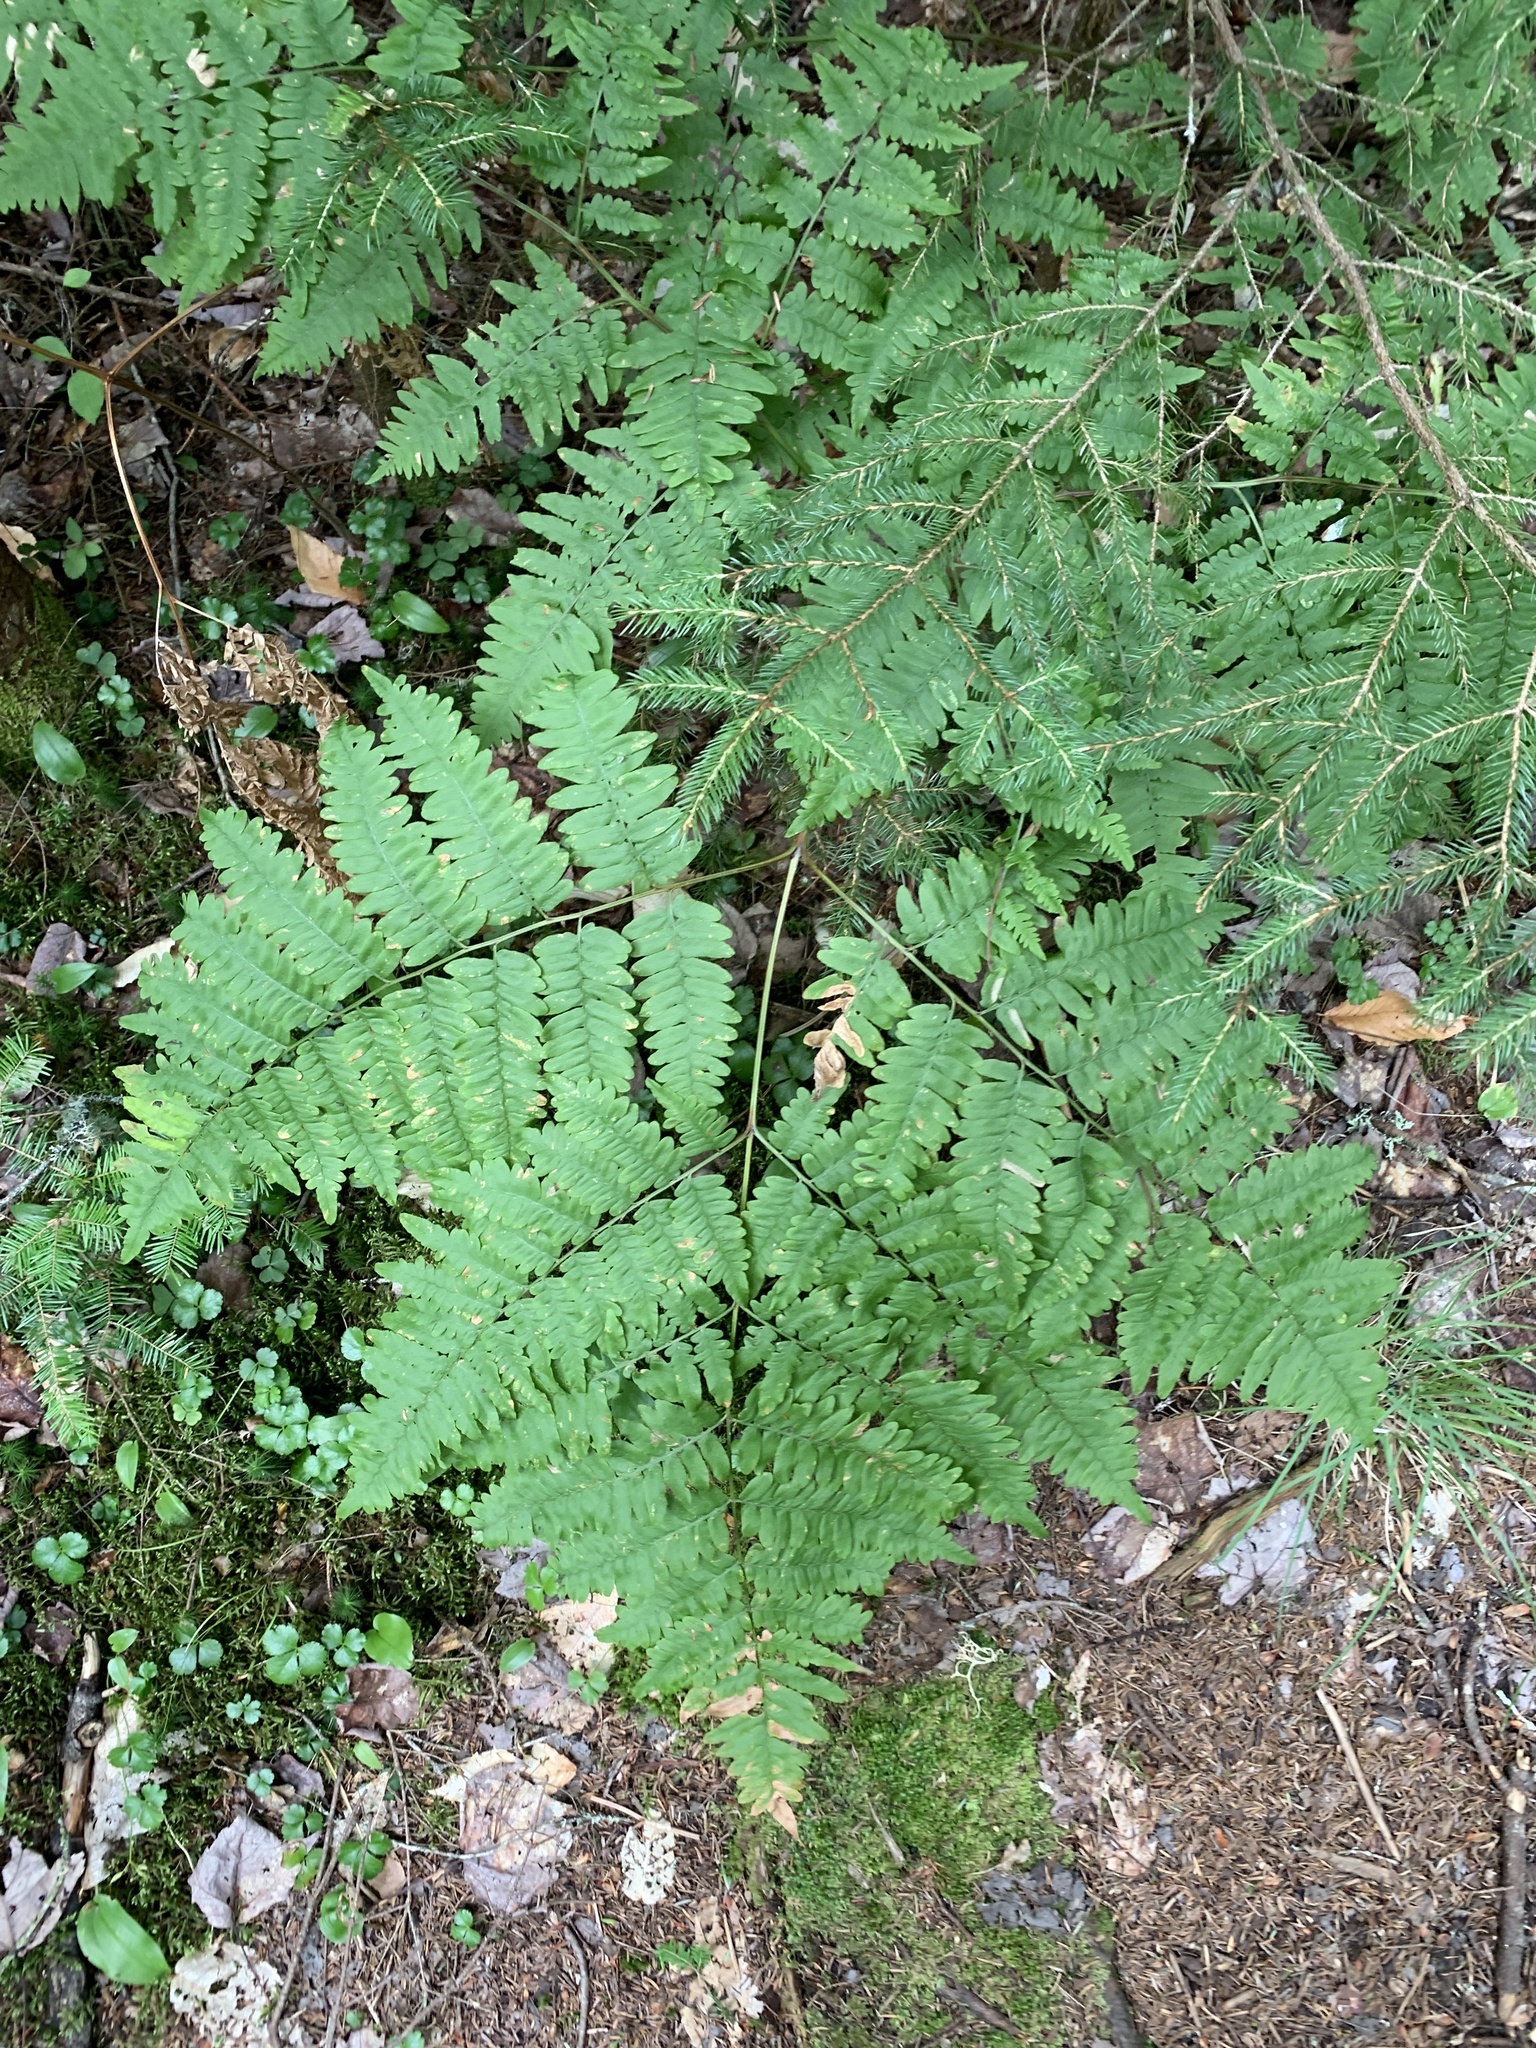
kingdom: Plantae
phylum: Tracheophyta
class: Polypodiopsida
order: Polypodiales
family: Dennstaedtiaceae
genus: Pteridium
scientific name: Pteridium aquilinum
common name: Bracken
